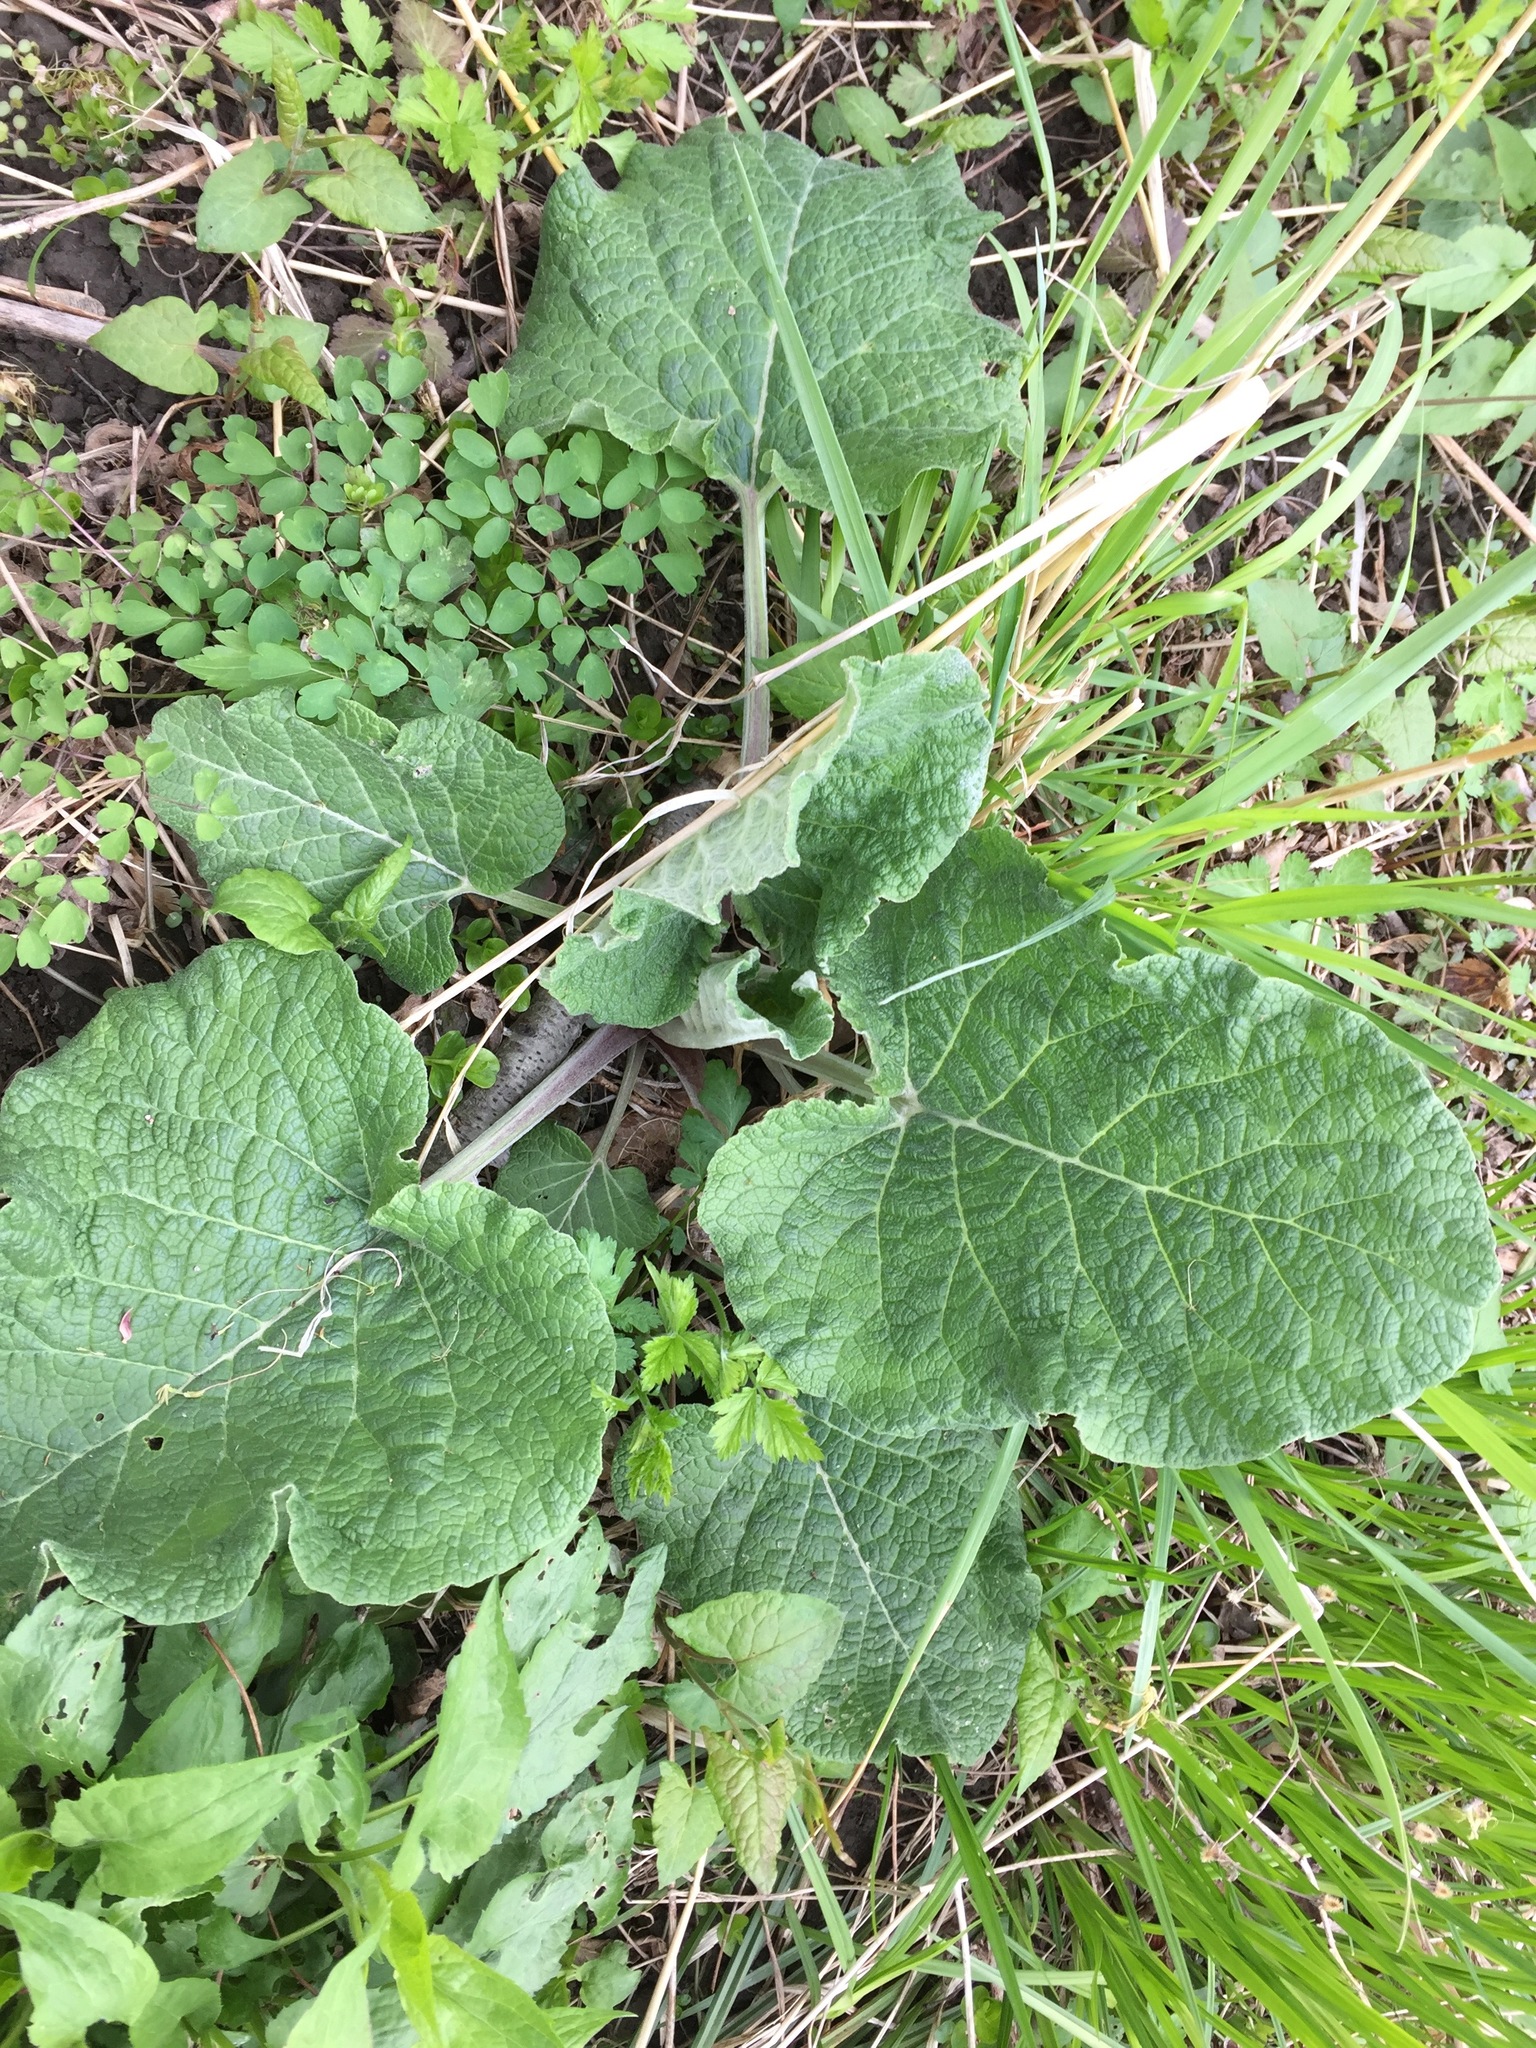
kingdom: Plantae
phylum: Tracheophyta
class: Magnoliopsida
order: Asterales
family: Asteraceae
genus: Arctium
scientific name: Arctium
